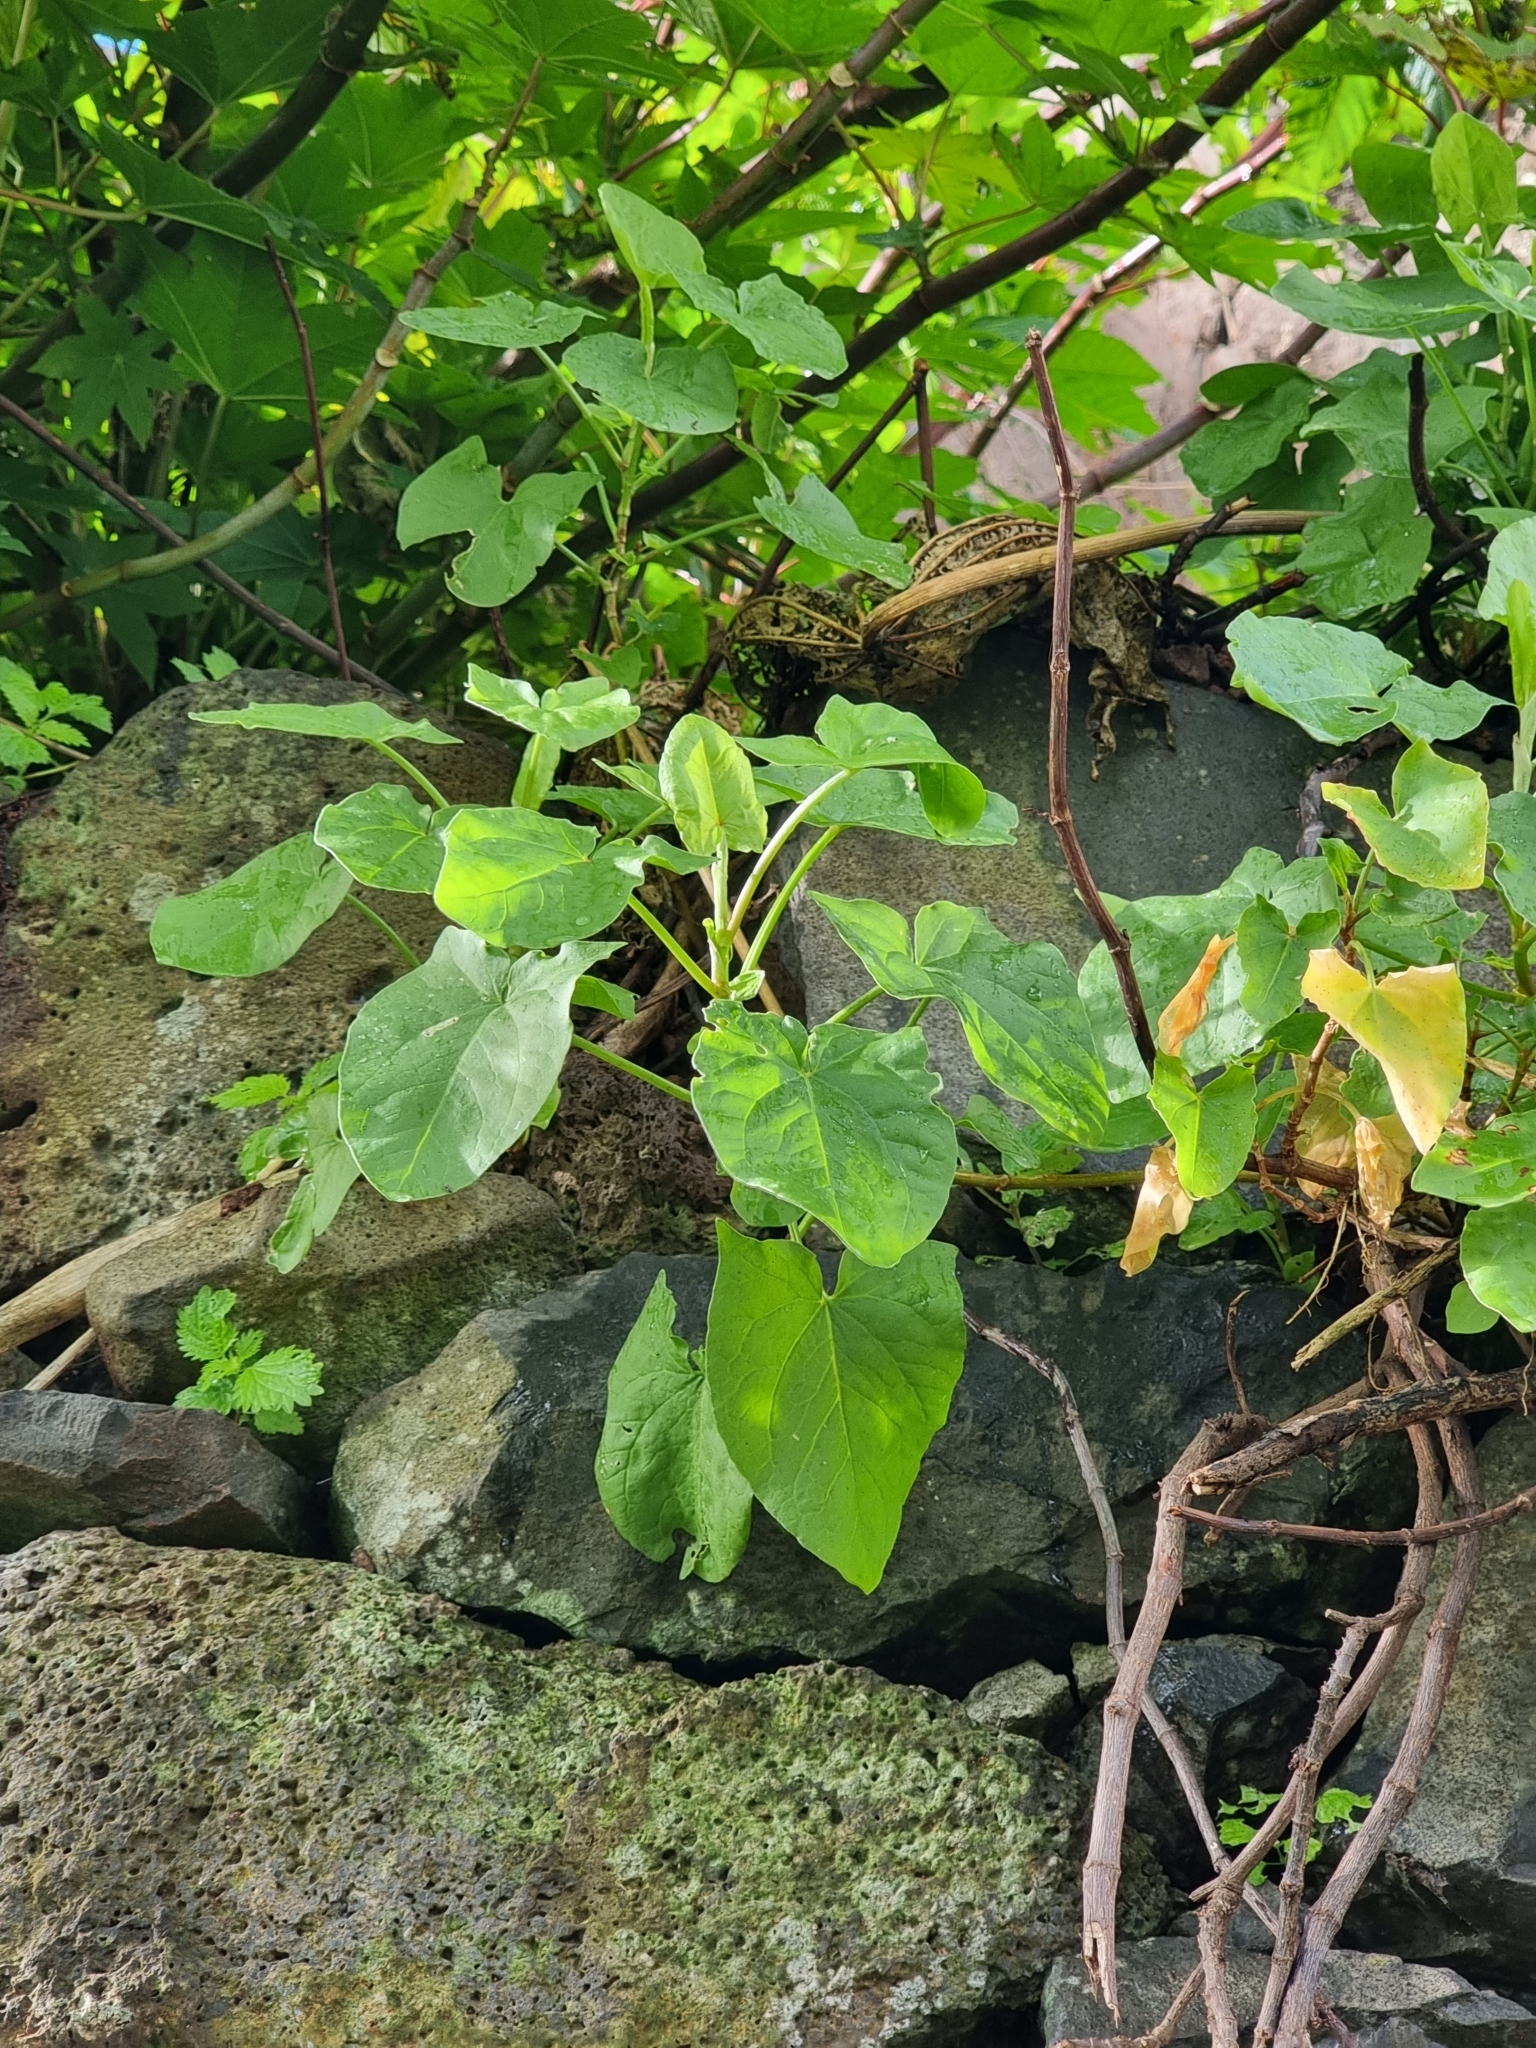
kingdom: Plantae
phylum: Tracheophyta
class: Magnoliopsida
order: Caryophyllales
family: Polygonaceae
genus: Rumex
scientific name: Rumex maderensis
